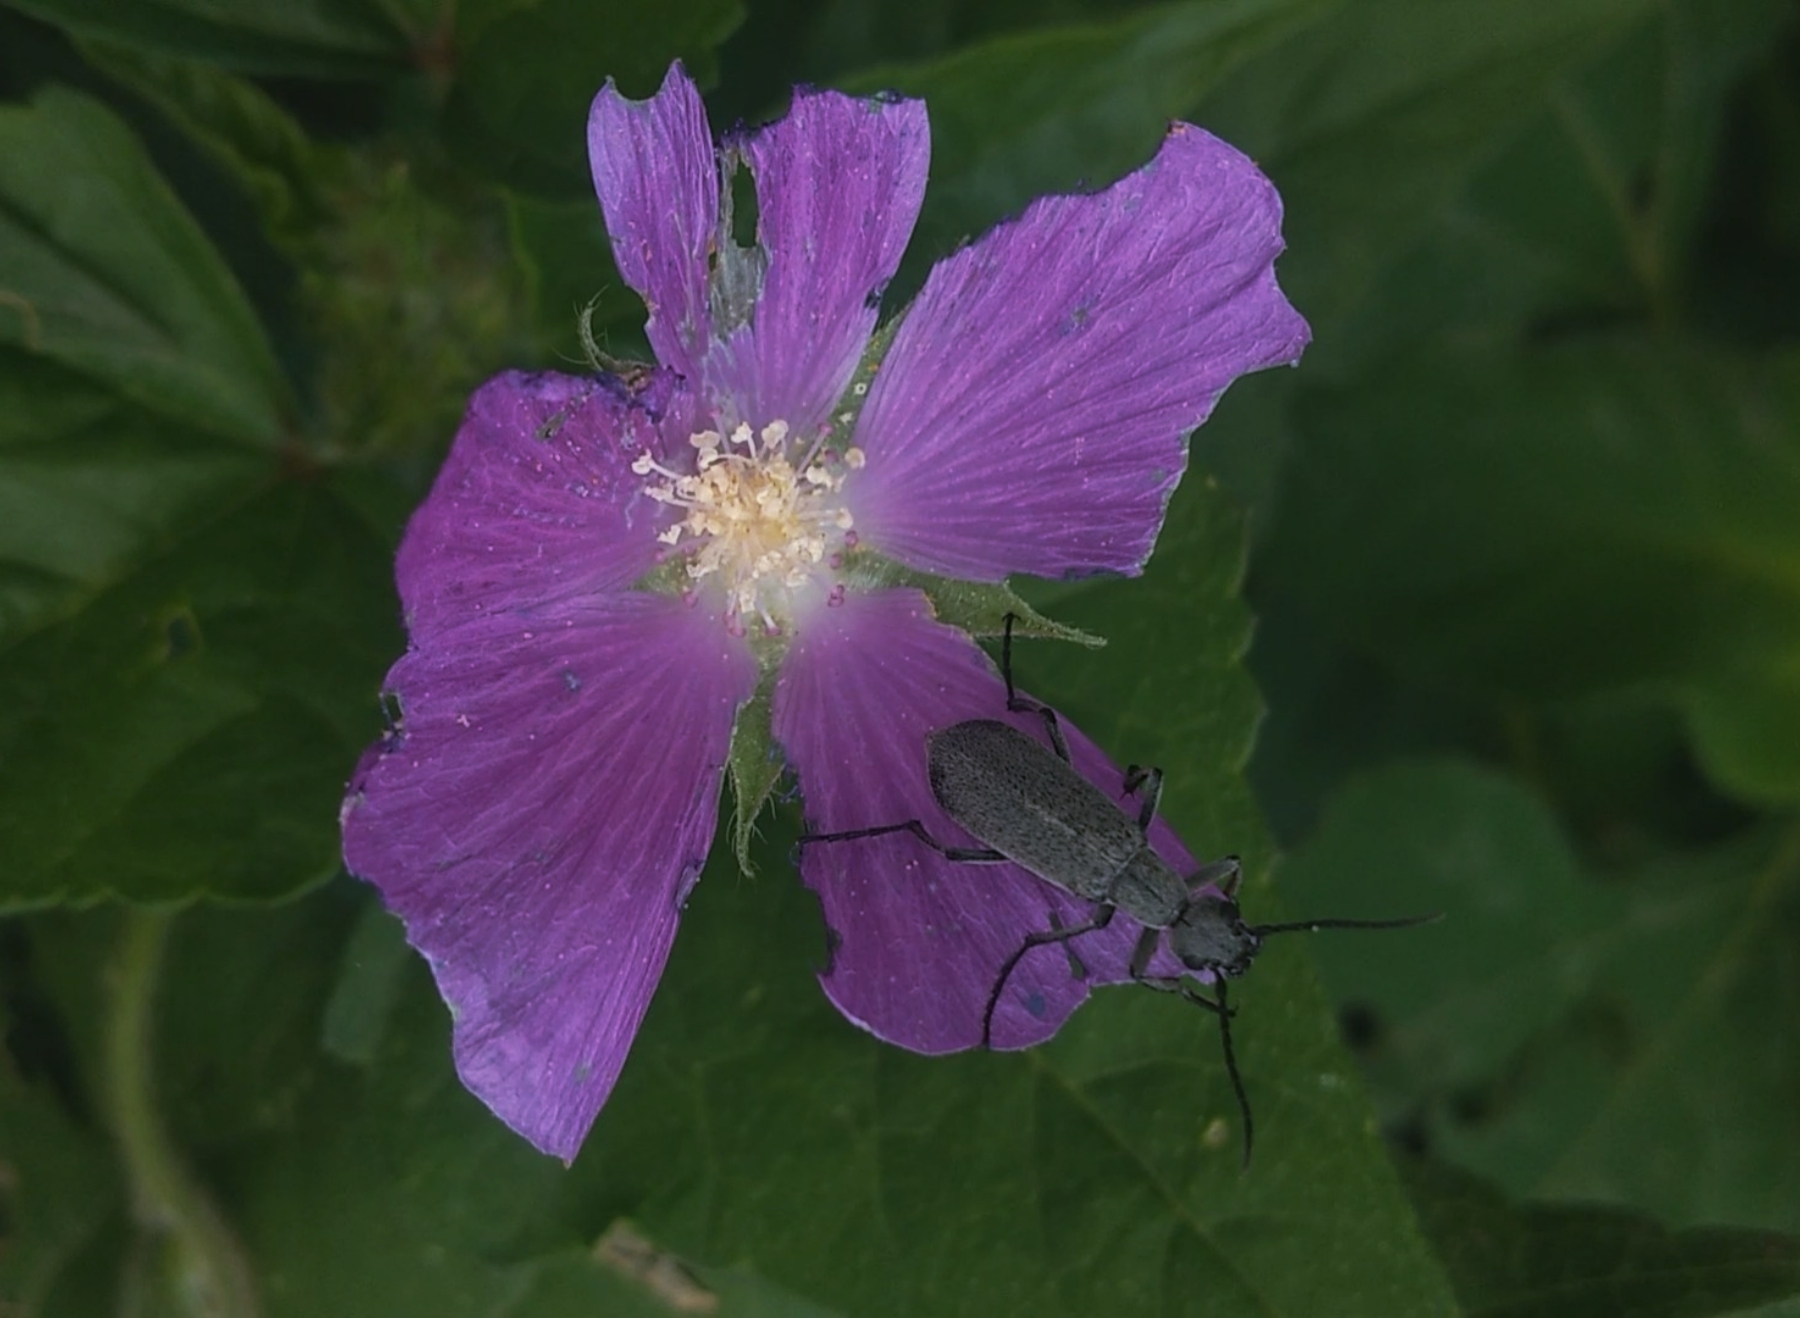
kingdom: Plantae
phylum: Tracheophyta
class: Magnoliopsida
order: Malvales
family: Malvaceae
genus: Anoda
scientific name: Anoda cristata
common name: Spurred anoda
